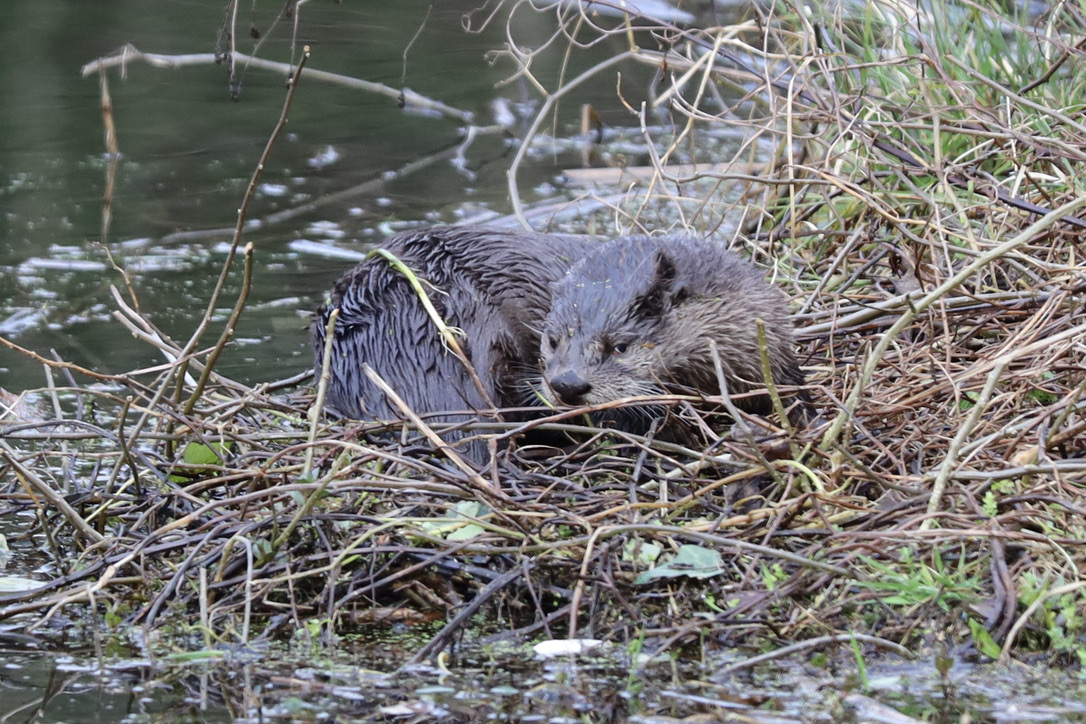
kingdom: Animalia
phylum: Chordata
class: Mammalia
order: Carnivora
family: Mustelidae
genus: Lontra
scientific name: Lontra canadensis
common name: North american river otter
